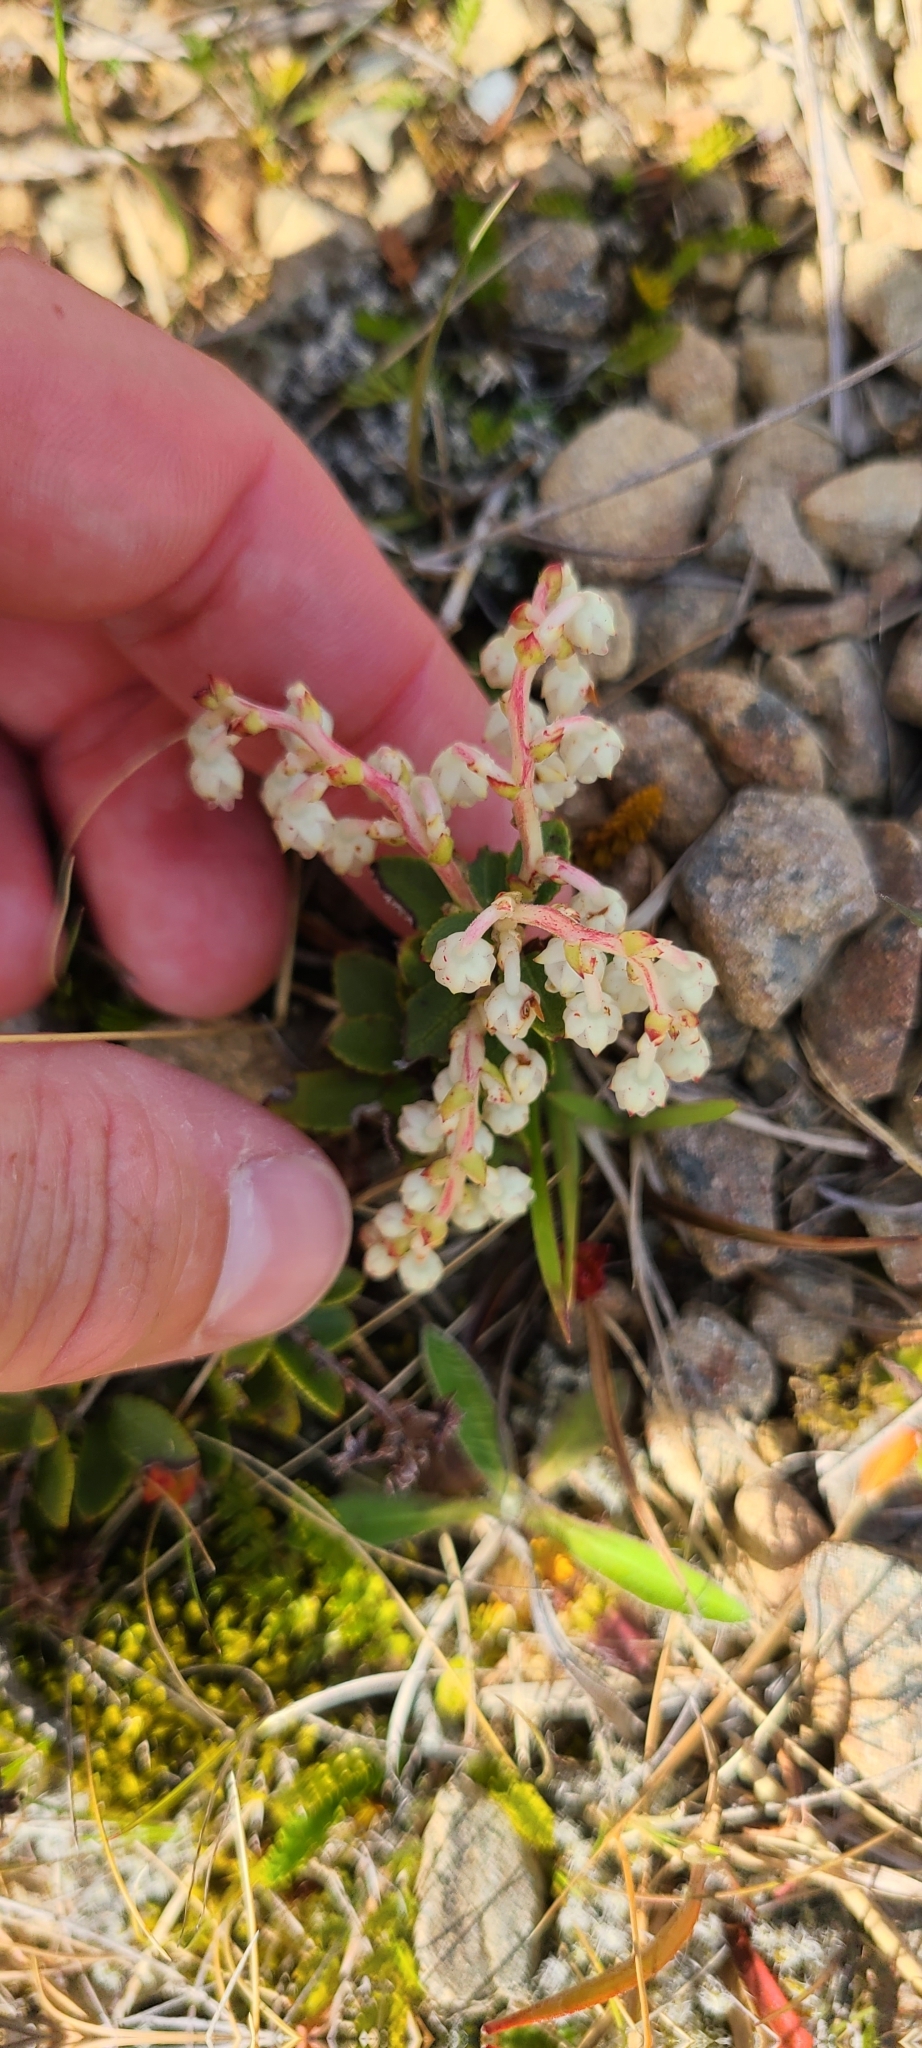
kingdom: Plantae
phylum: Tracheophyta
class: Magnoliopsida
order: Ericales
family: Ericaceae
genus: Gaultheria
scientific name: Gaultheria crassa
